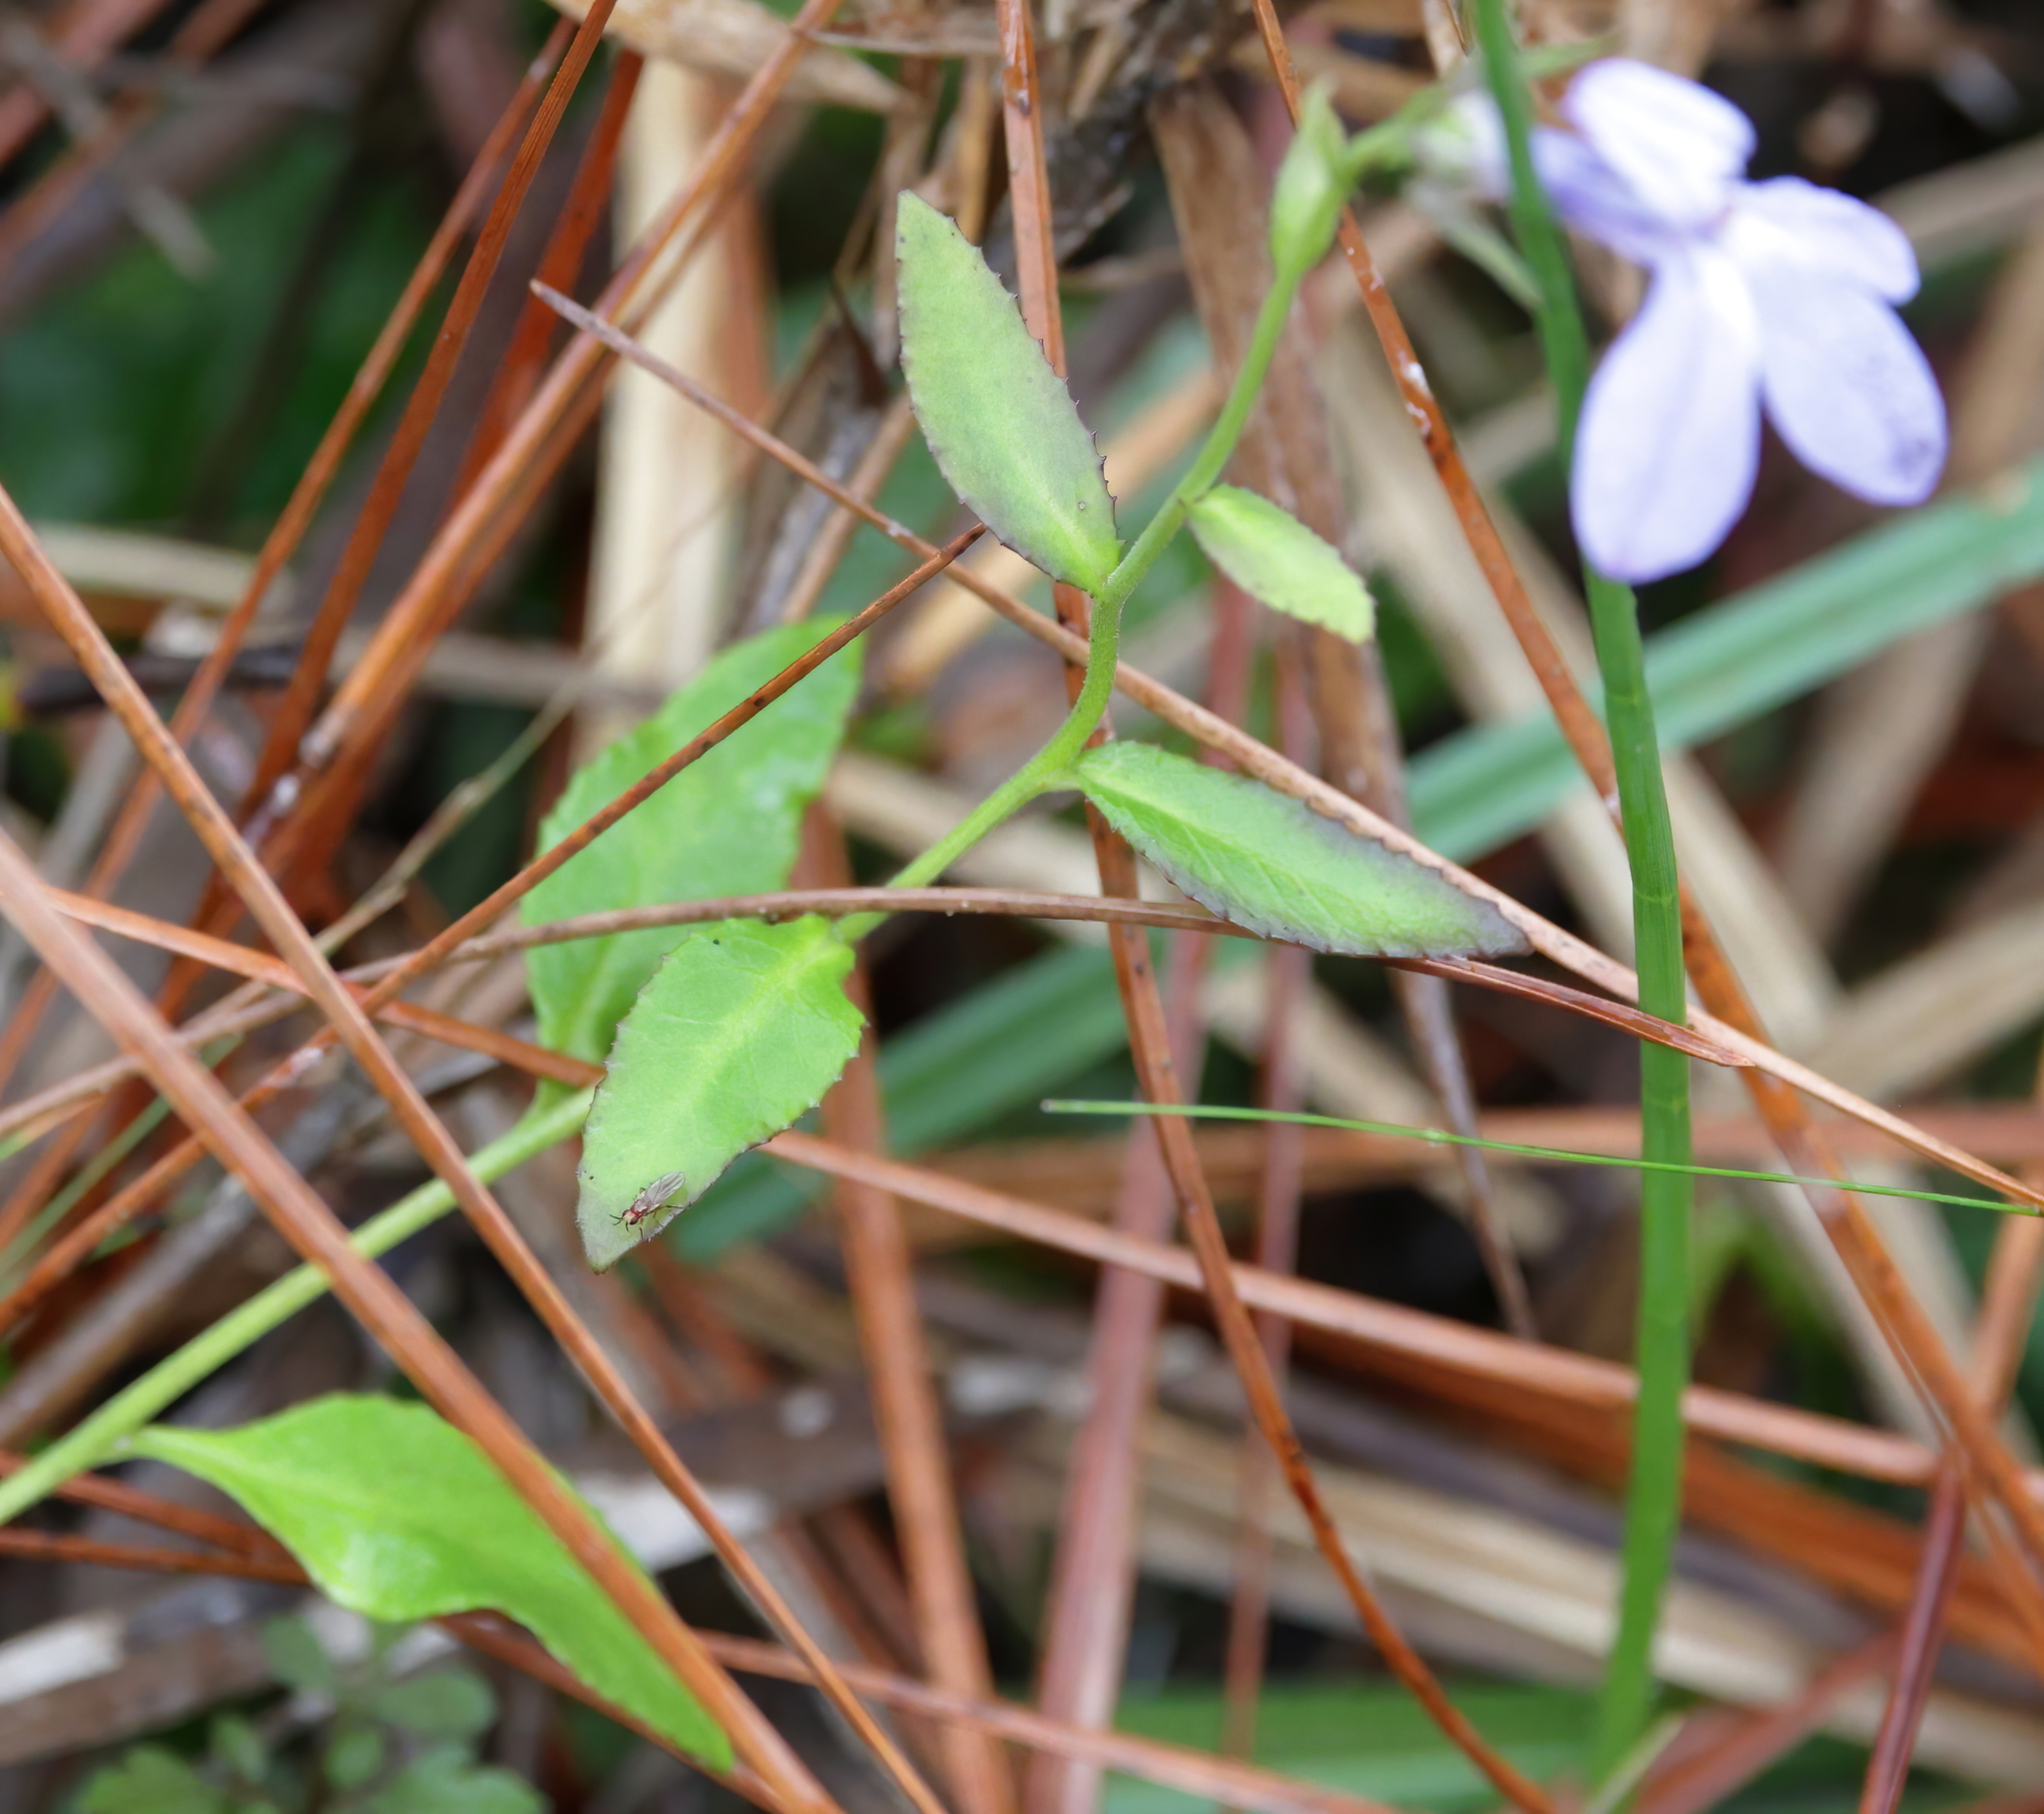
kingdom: Plantae
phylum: Tracheophyta
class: Magnoliopsida
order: Asterales
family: Campanulaceae
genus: Lobelia
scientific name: Lobelia brevifolia
